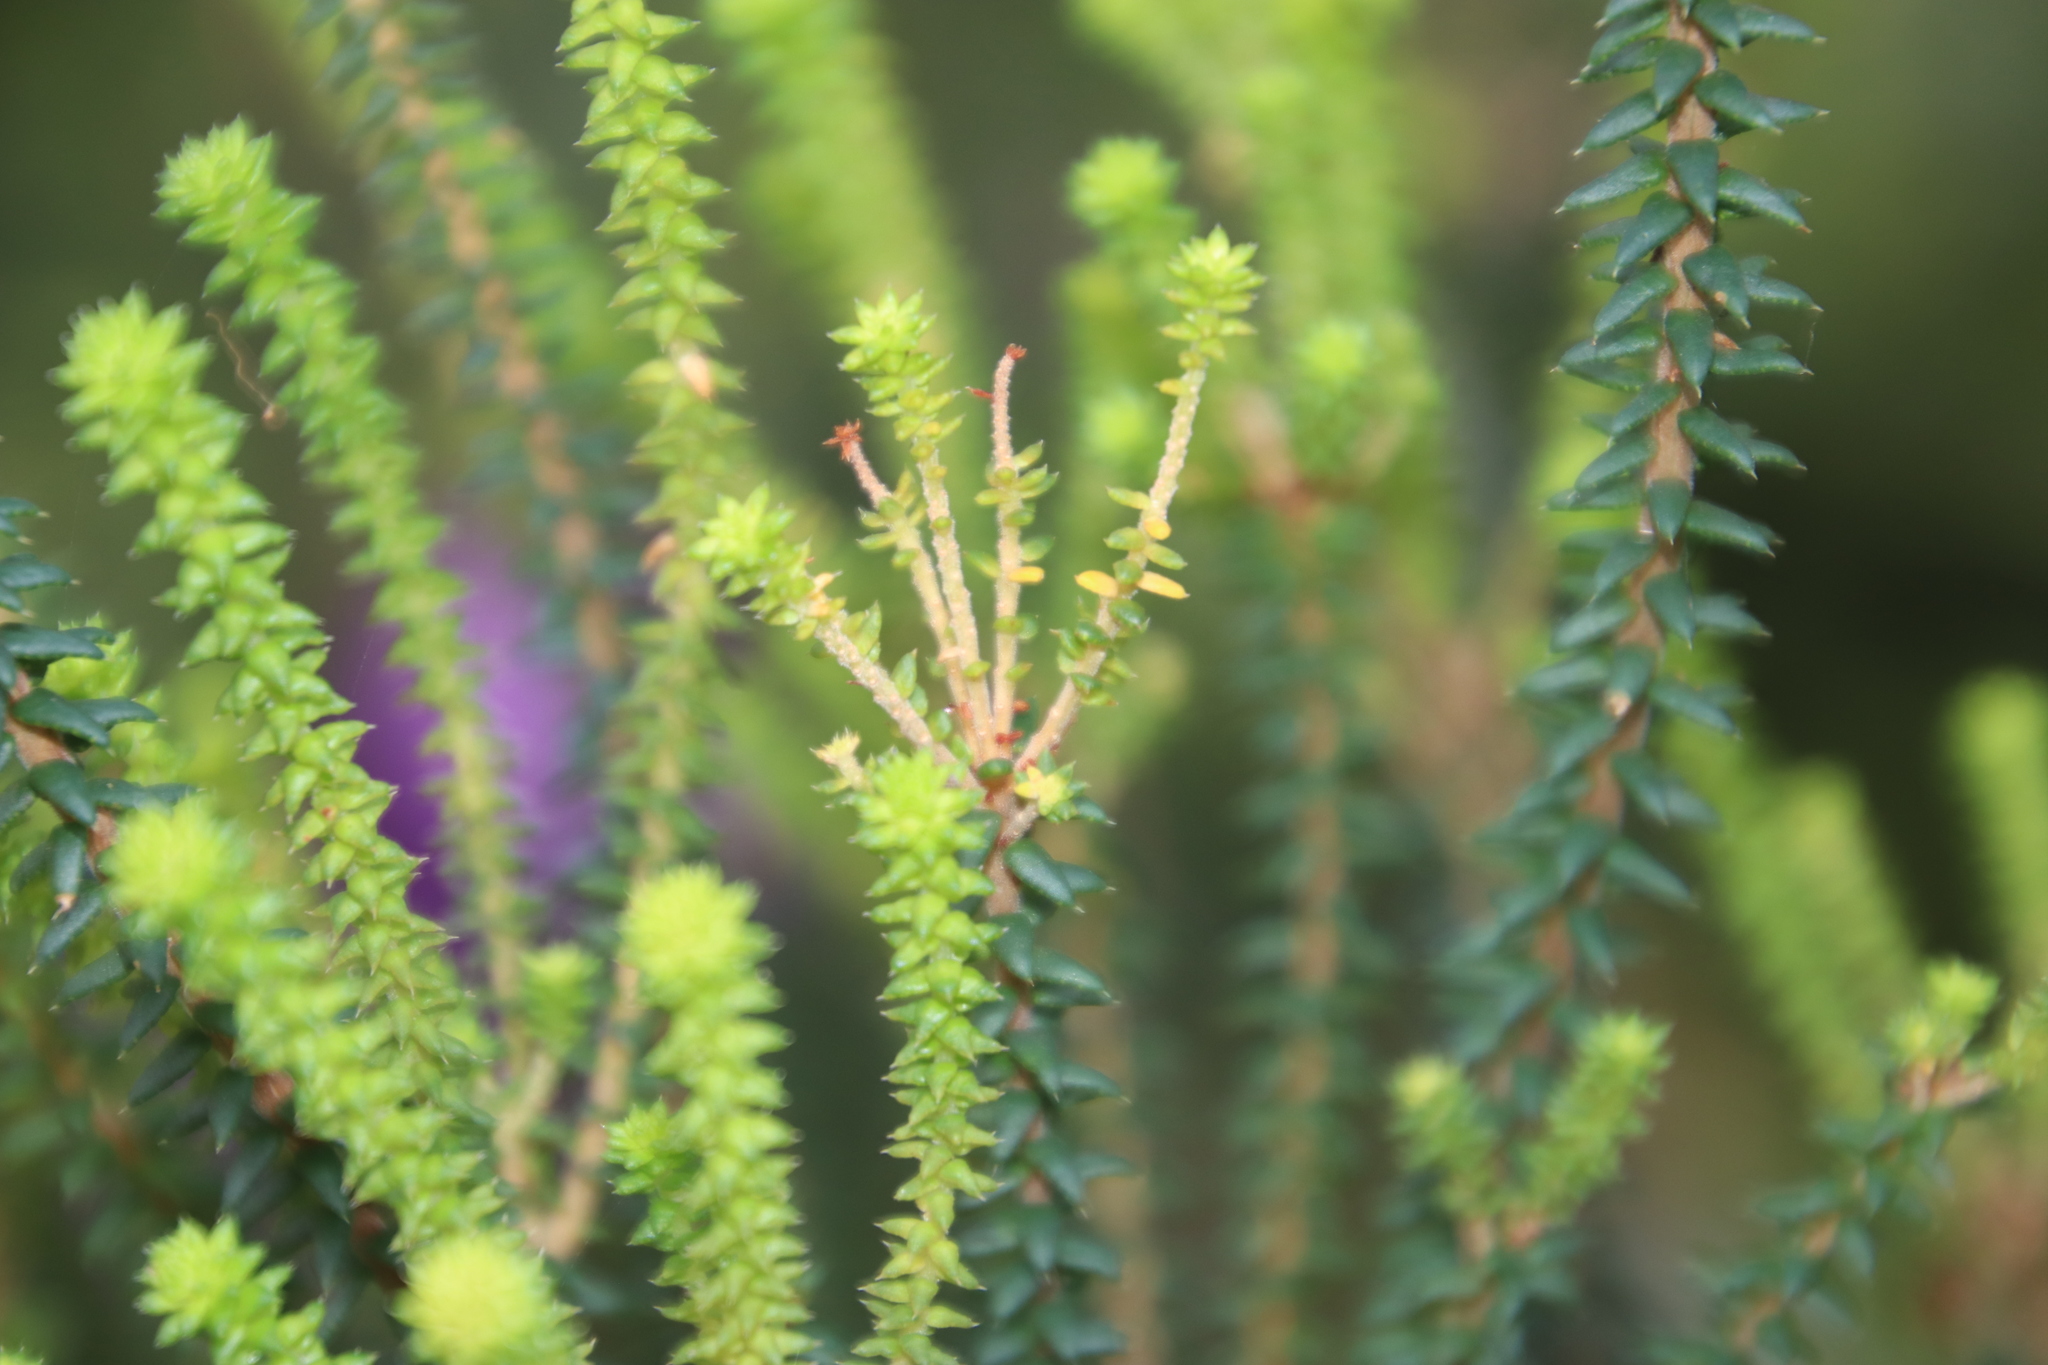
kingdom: Animalia
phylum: Arthropoda
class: Insecta
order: Coleoptera
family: Curculionidae
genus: Ellimenistes
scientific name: Ellimenistes laesicollis
